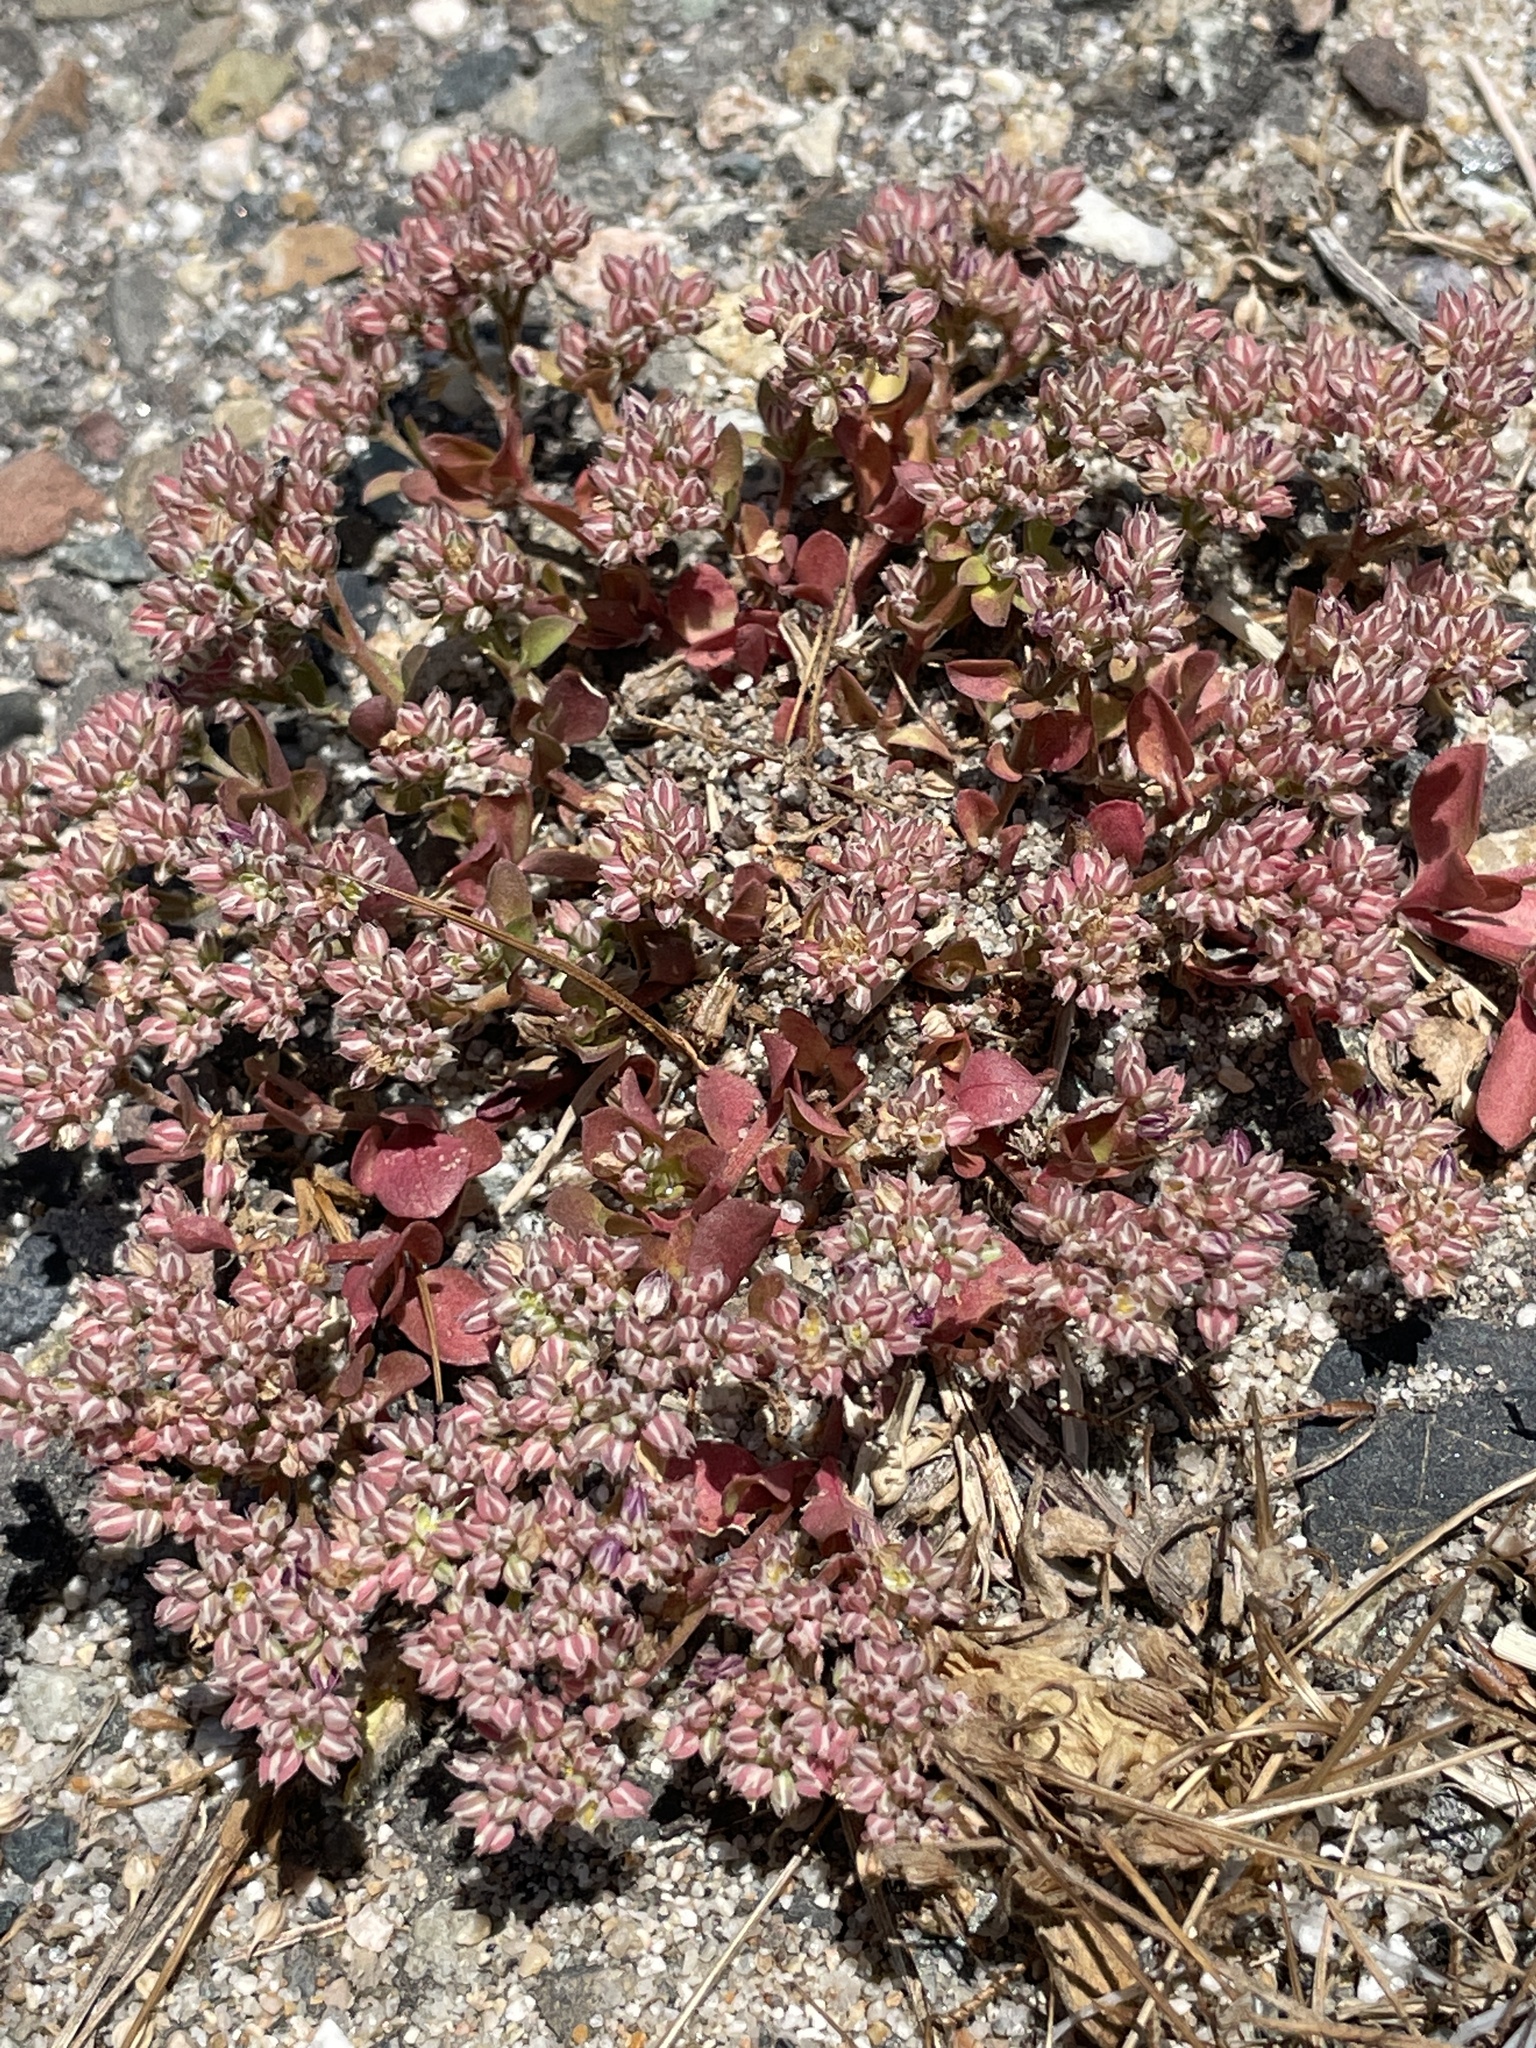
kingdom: Plantae
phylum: Tracheophyta
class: Magnoliopsida
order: Caryophyllales
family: Caryophyllaceae
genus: Polycarpon
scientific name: Polycarpon tetraphyllum
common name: Four-leaved all-seed
